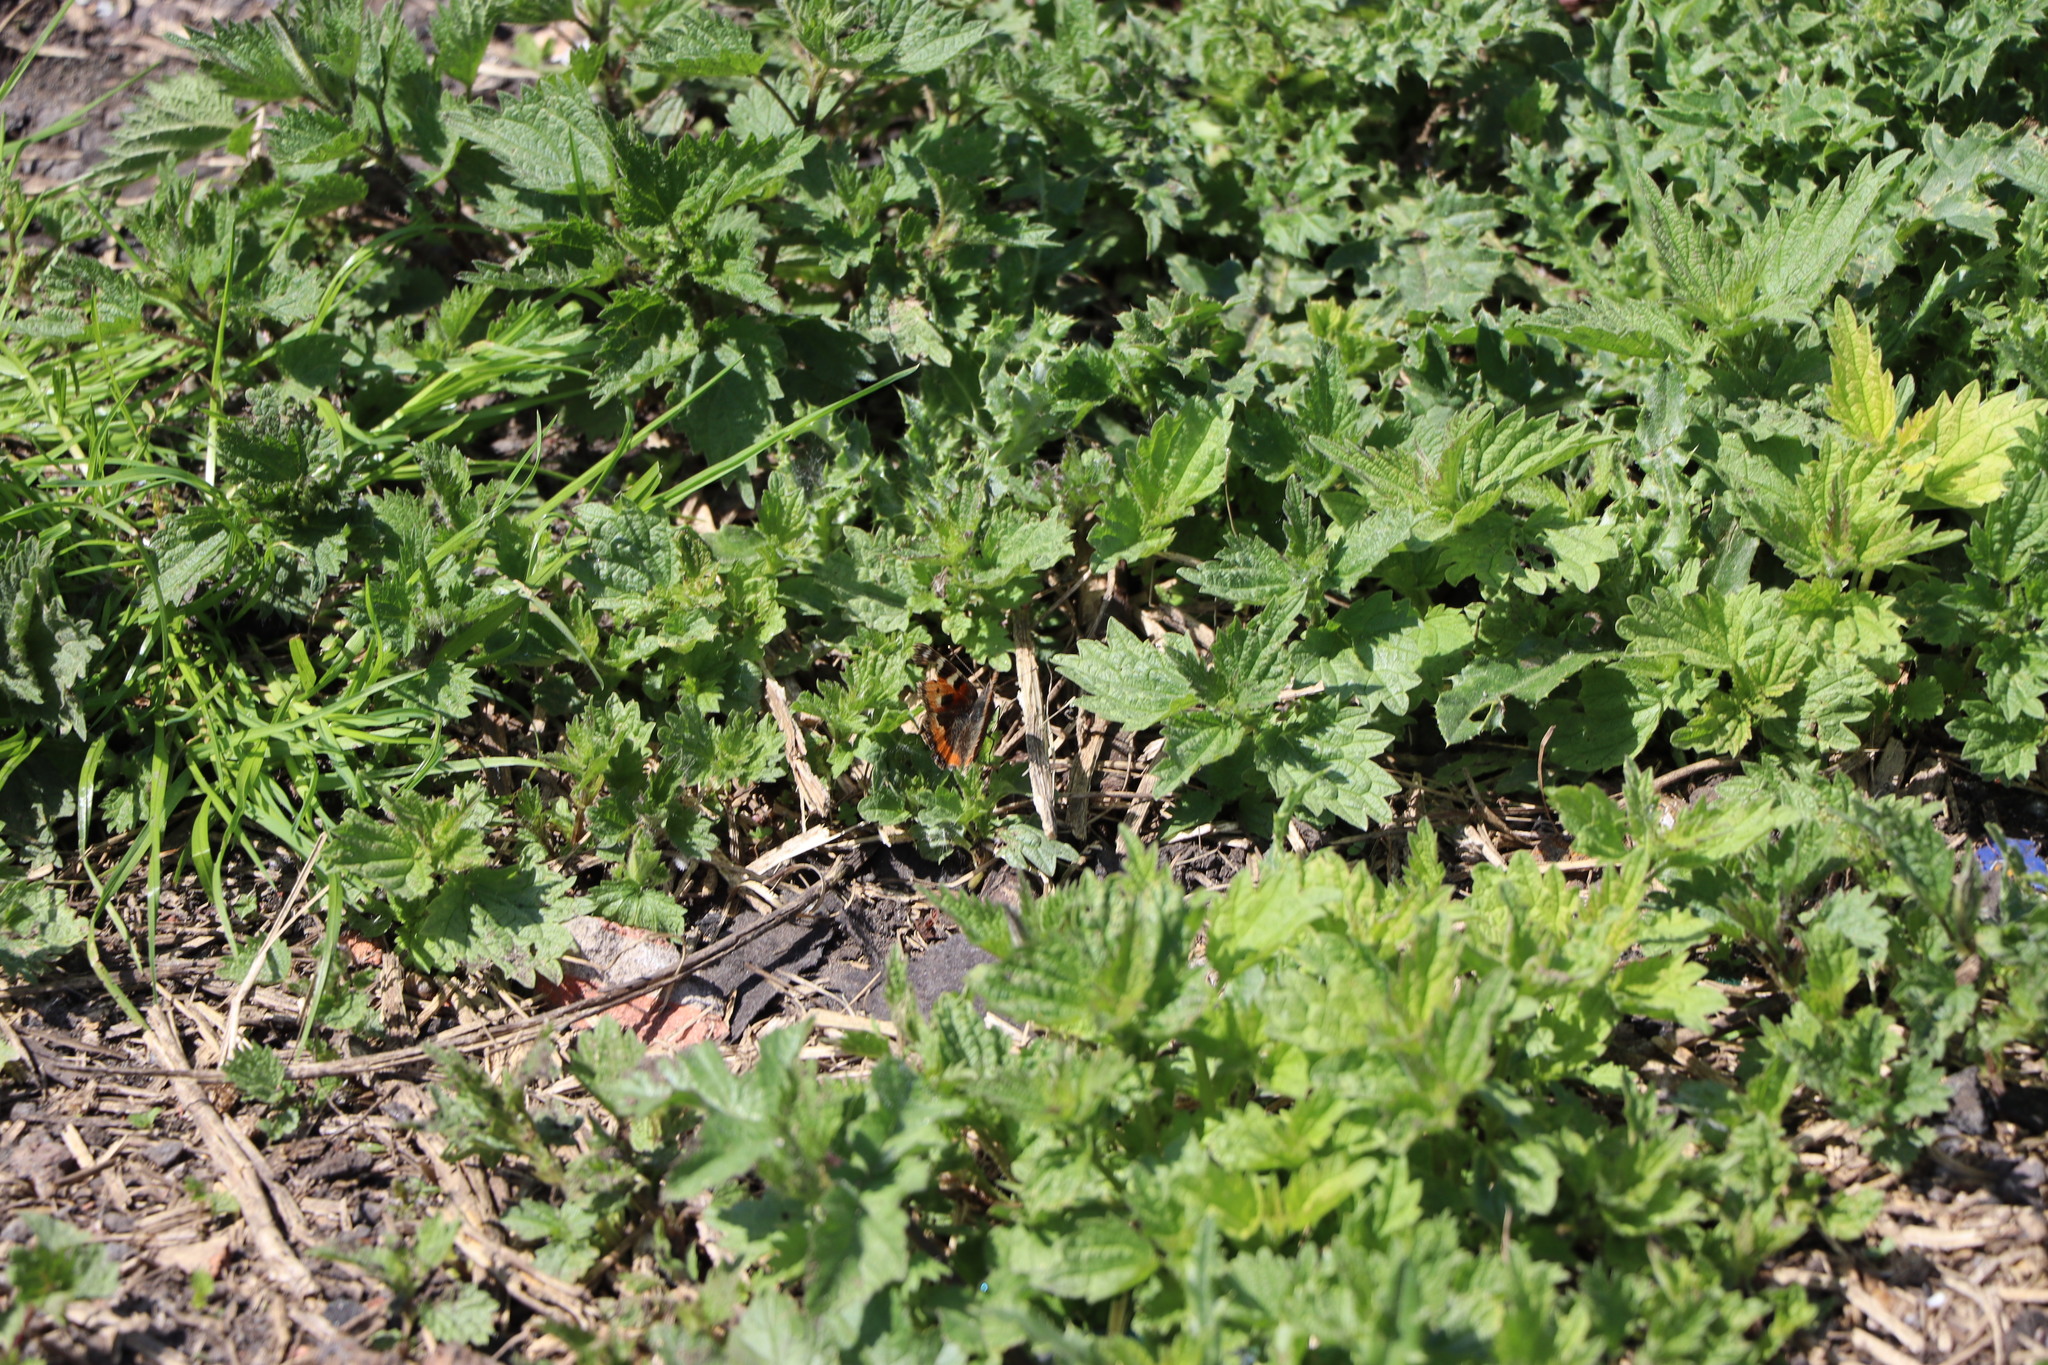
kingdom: Animalia
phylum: Arthropoda
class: Insecta
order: Lepidoptera
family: Nymphalidae
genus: Aglais
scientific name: Aglais urticae
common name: Small tortoiseshell
